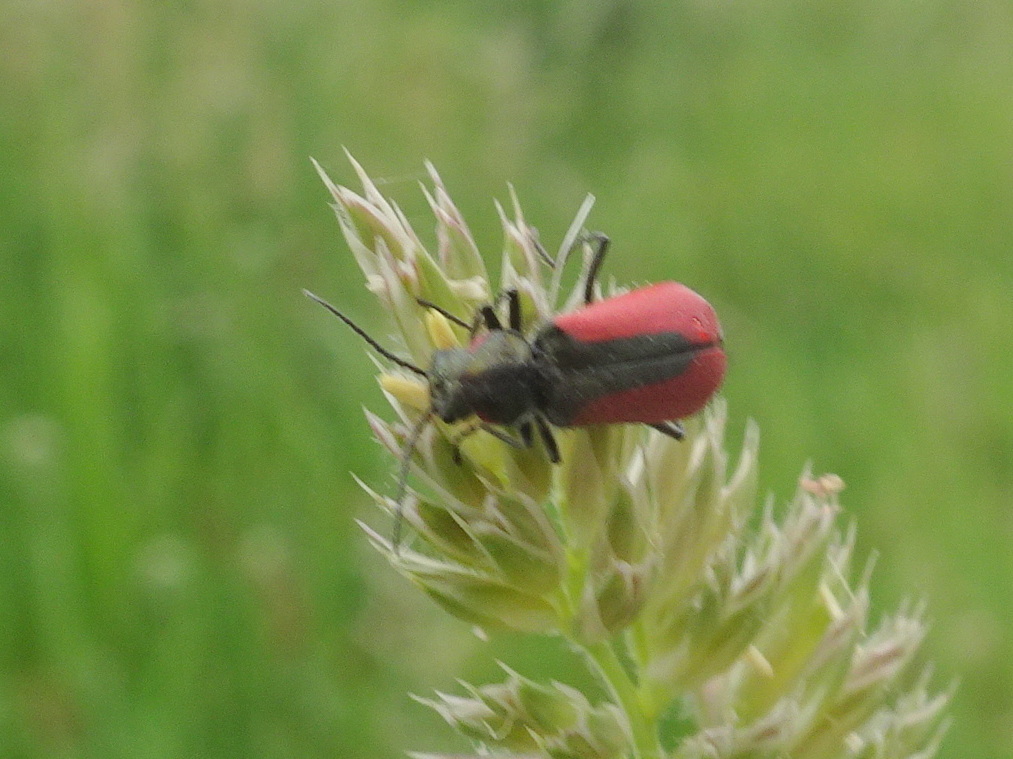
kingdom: Animalia
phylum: Arthropoda
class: Insecta
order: Coleoptera
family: Melyridae
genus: Malachius
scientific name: Malachius aeneus
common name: Scarlet malachite beetle
